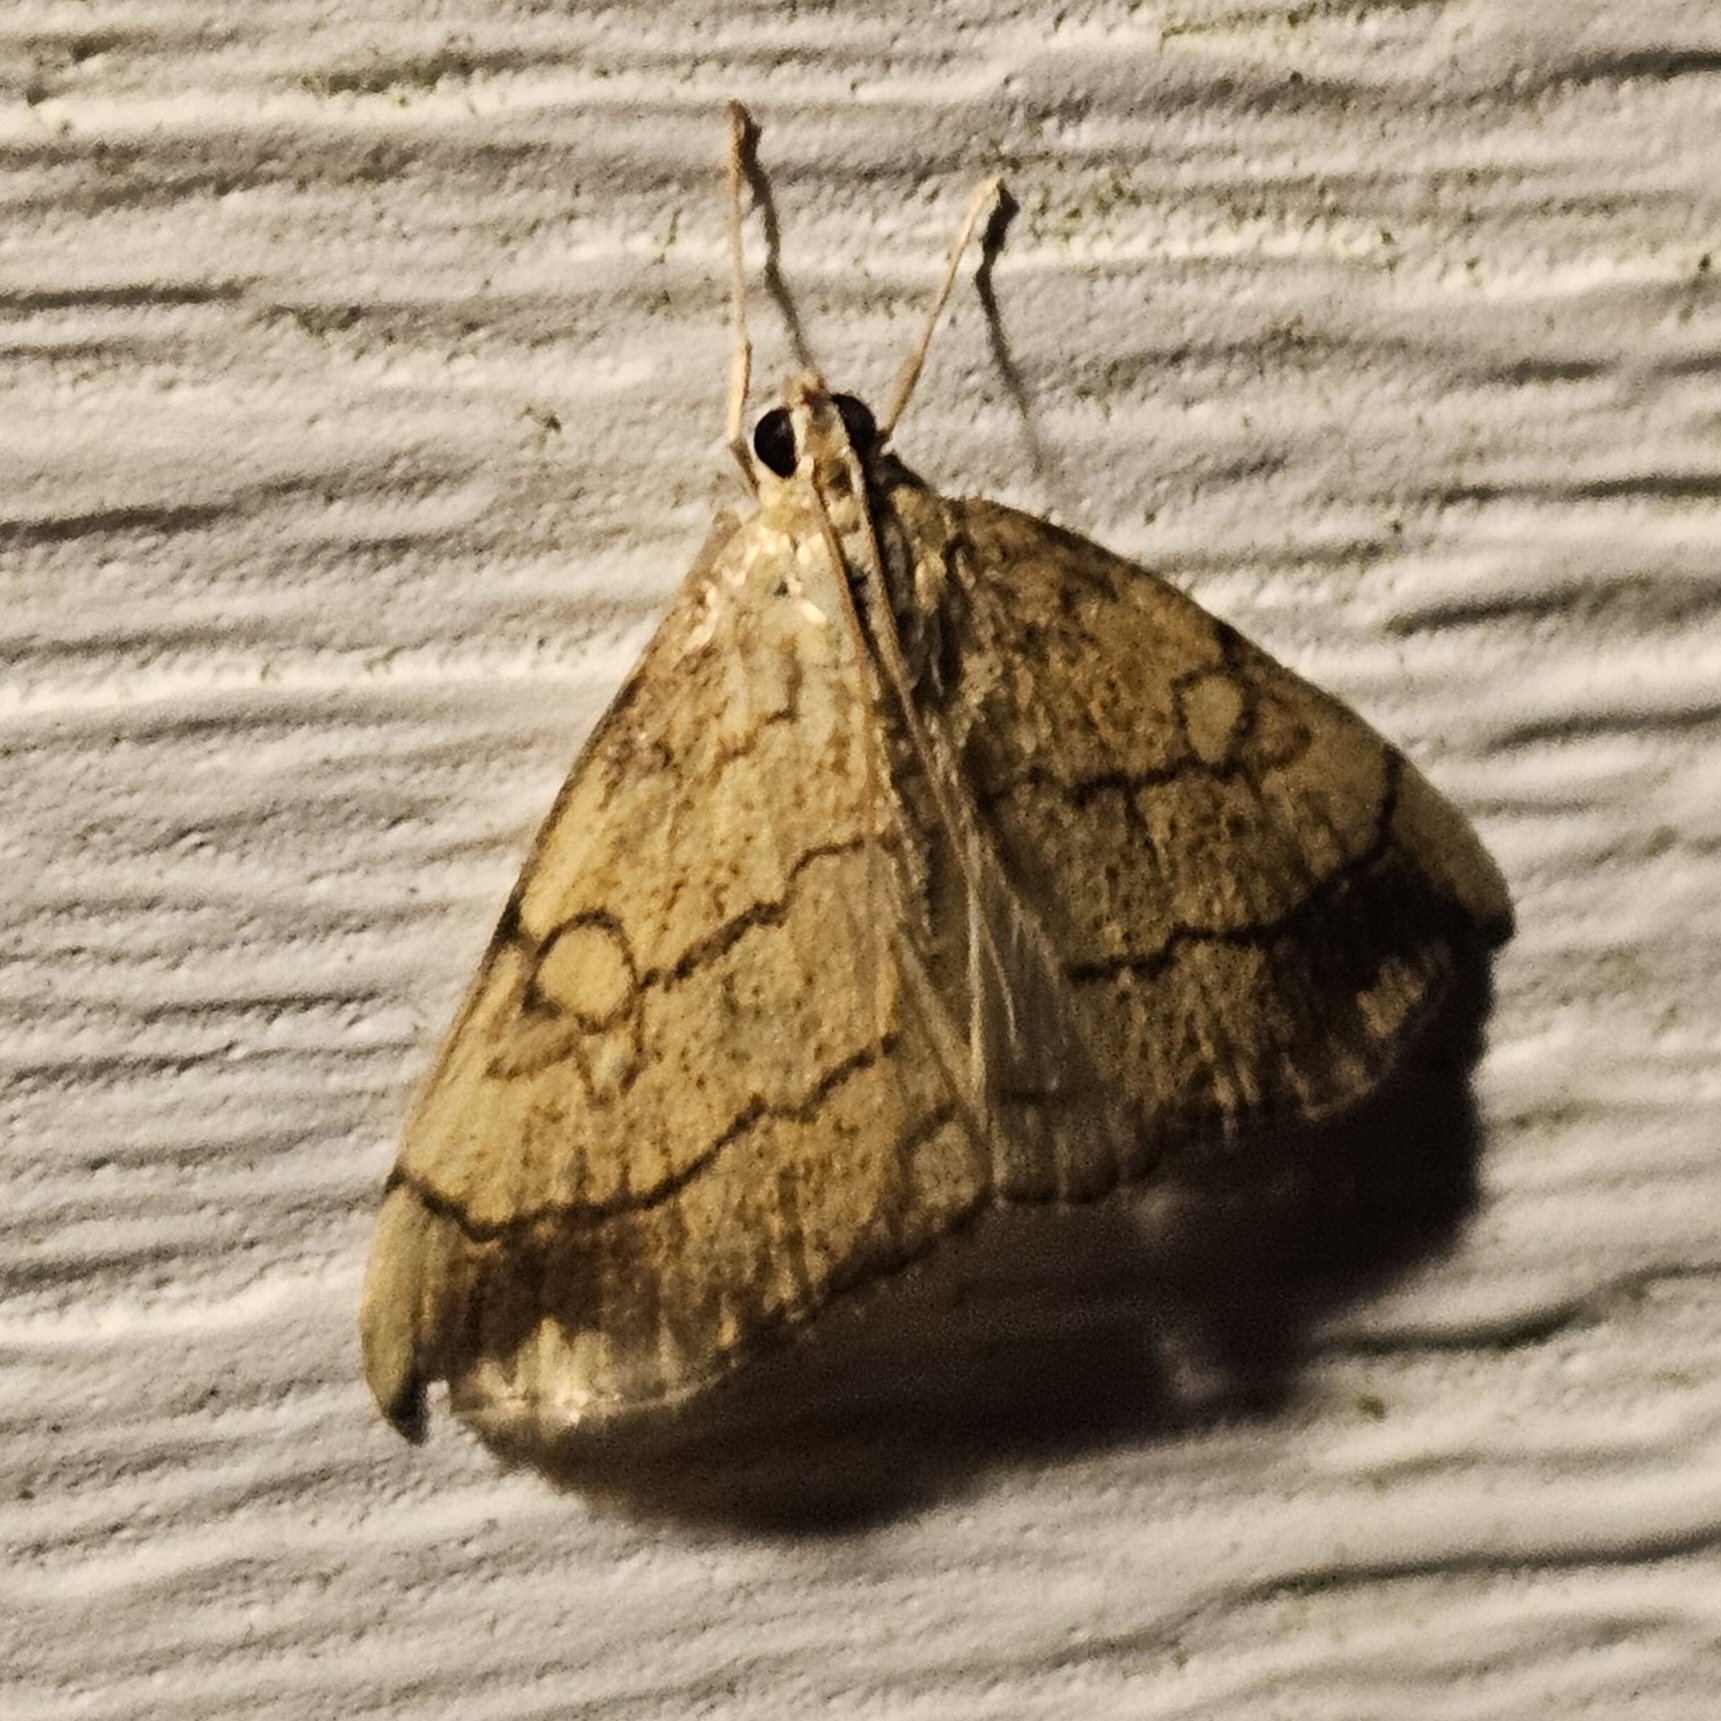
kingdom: Animalia
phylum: Arthropoda
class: Insecta
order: Lepidoptera
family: Crambidae
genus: Evergestis
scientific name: Evergestis pallidata
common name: Chequered pearl
